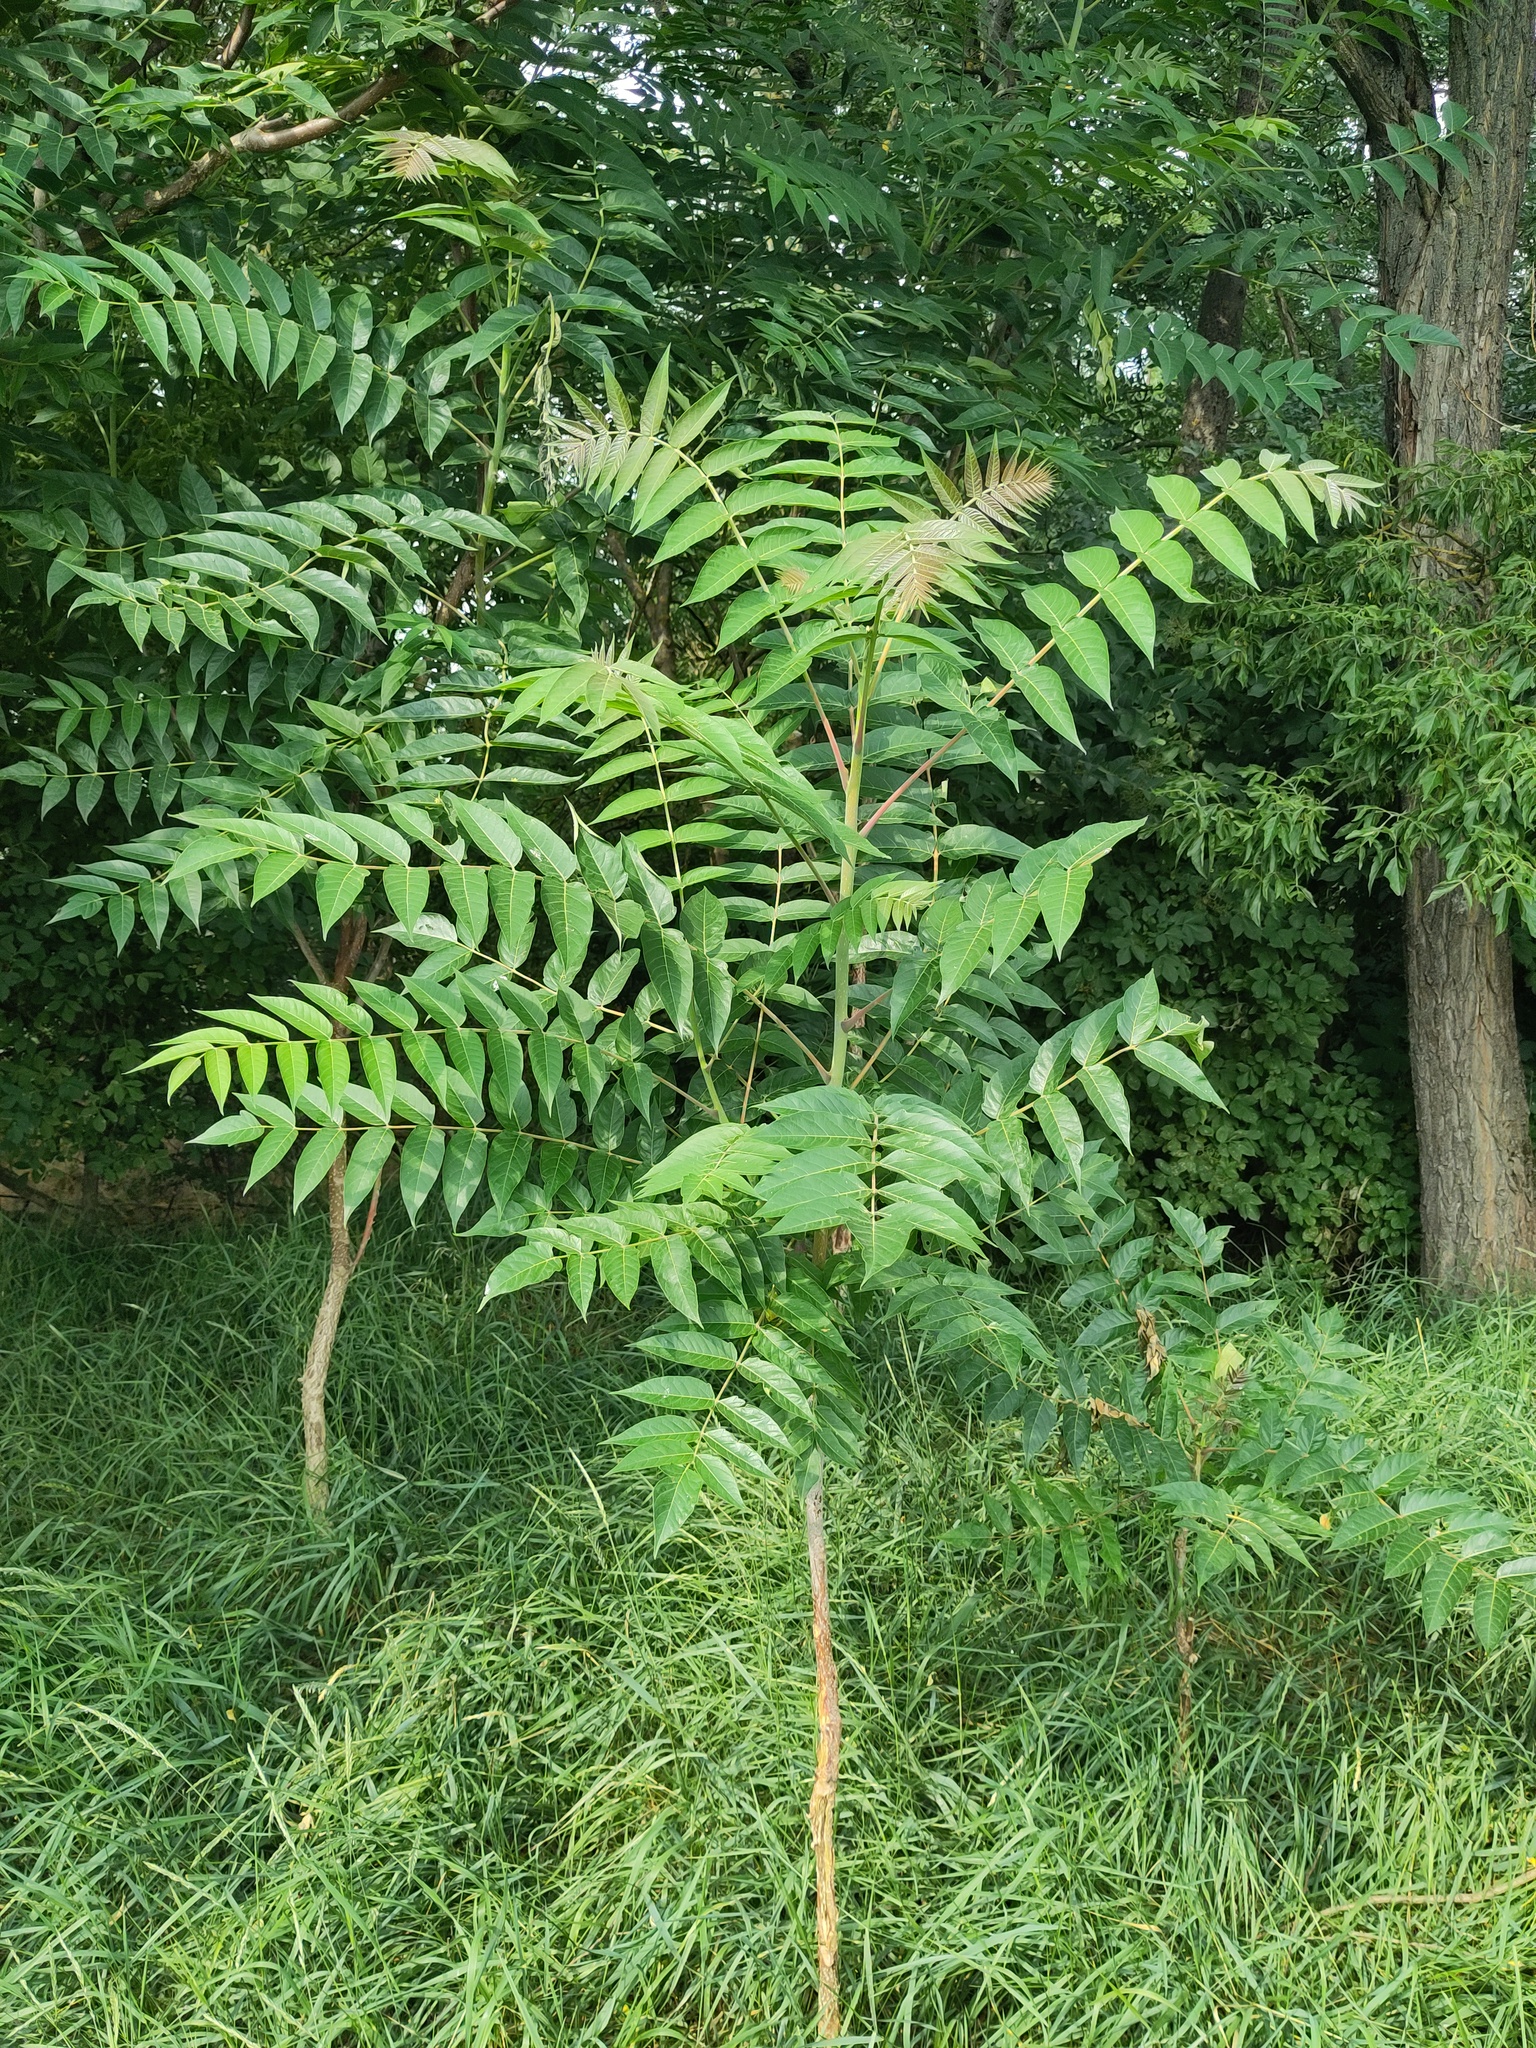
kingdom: Plantae
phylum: Tracheophyta
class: Magnoliopsida
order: Sapindales
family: Simaroubaceae
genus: Ailanthus
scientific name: Ailanthus altissima
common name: Tree-of-heaven
